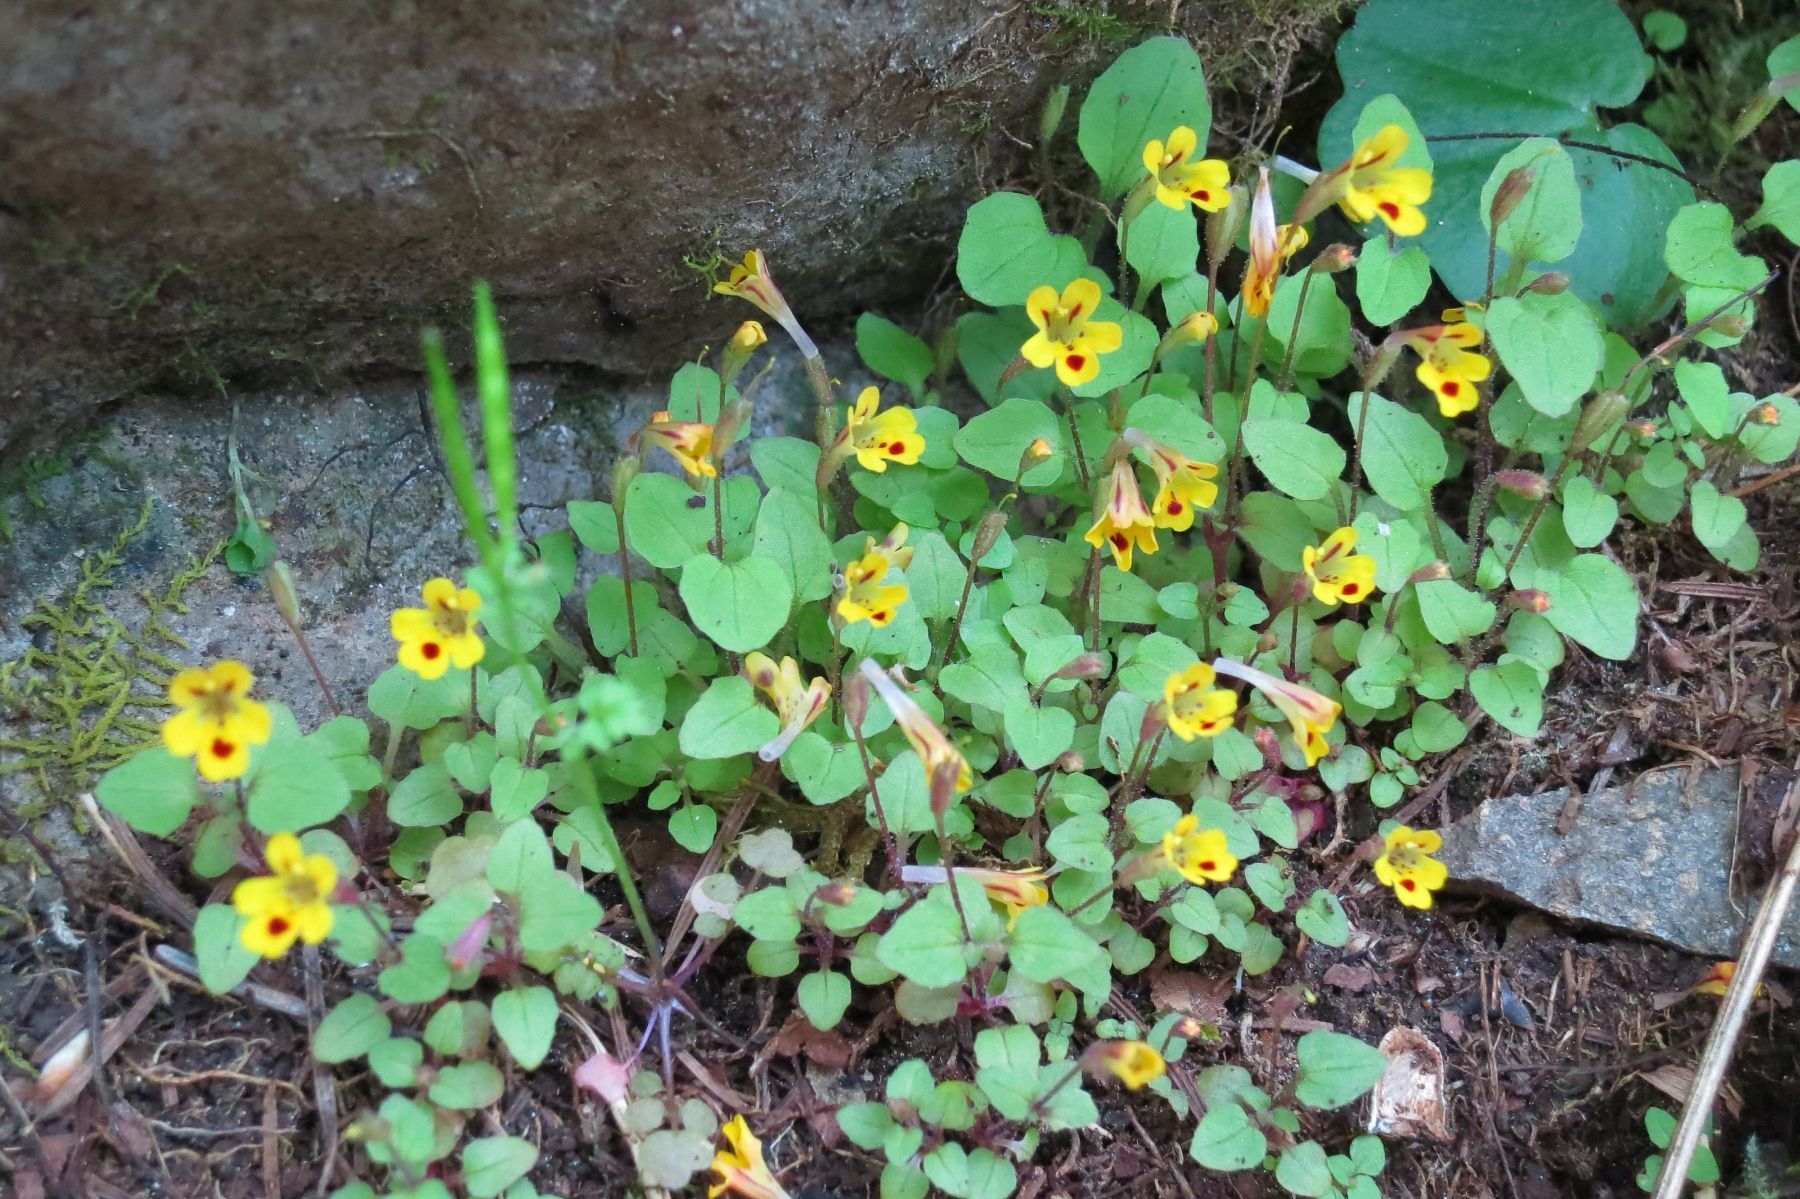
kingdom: Plantae
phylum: Tracheophyta
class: Magnoliopsida
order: Lamiales
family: Phrymaceae
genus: Erythranthe
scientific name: Erythranthe alsinoides
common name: Chickweed monkeyflower
